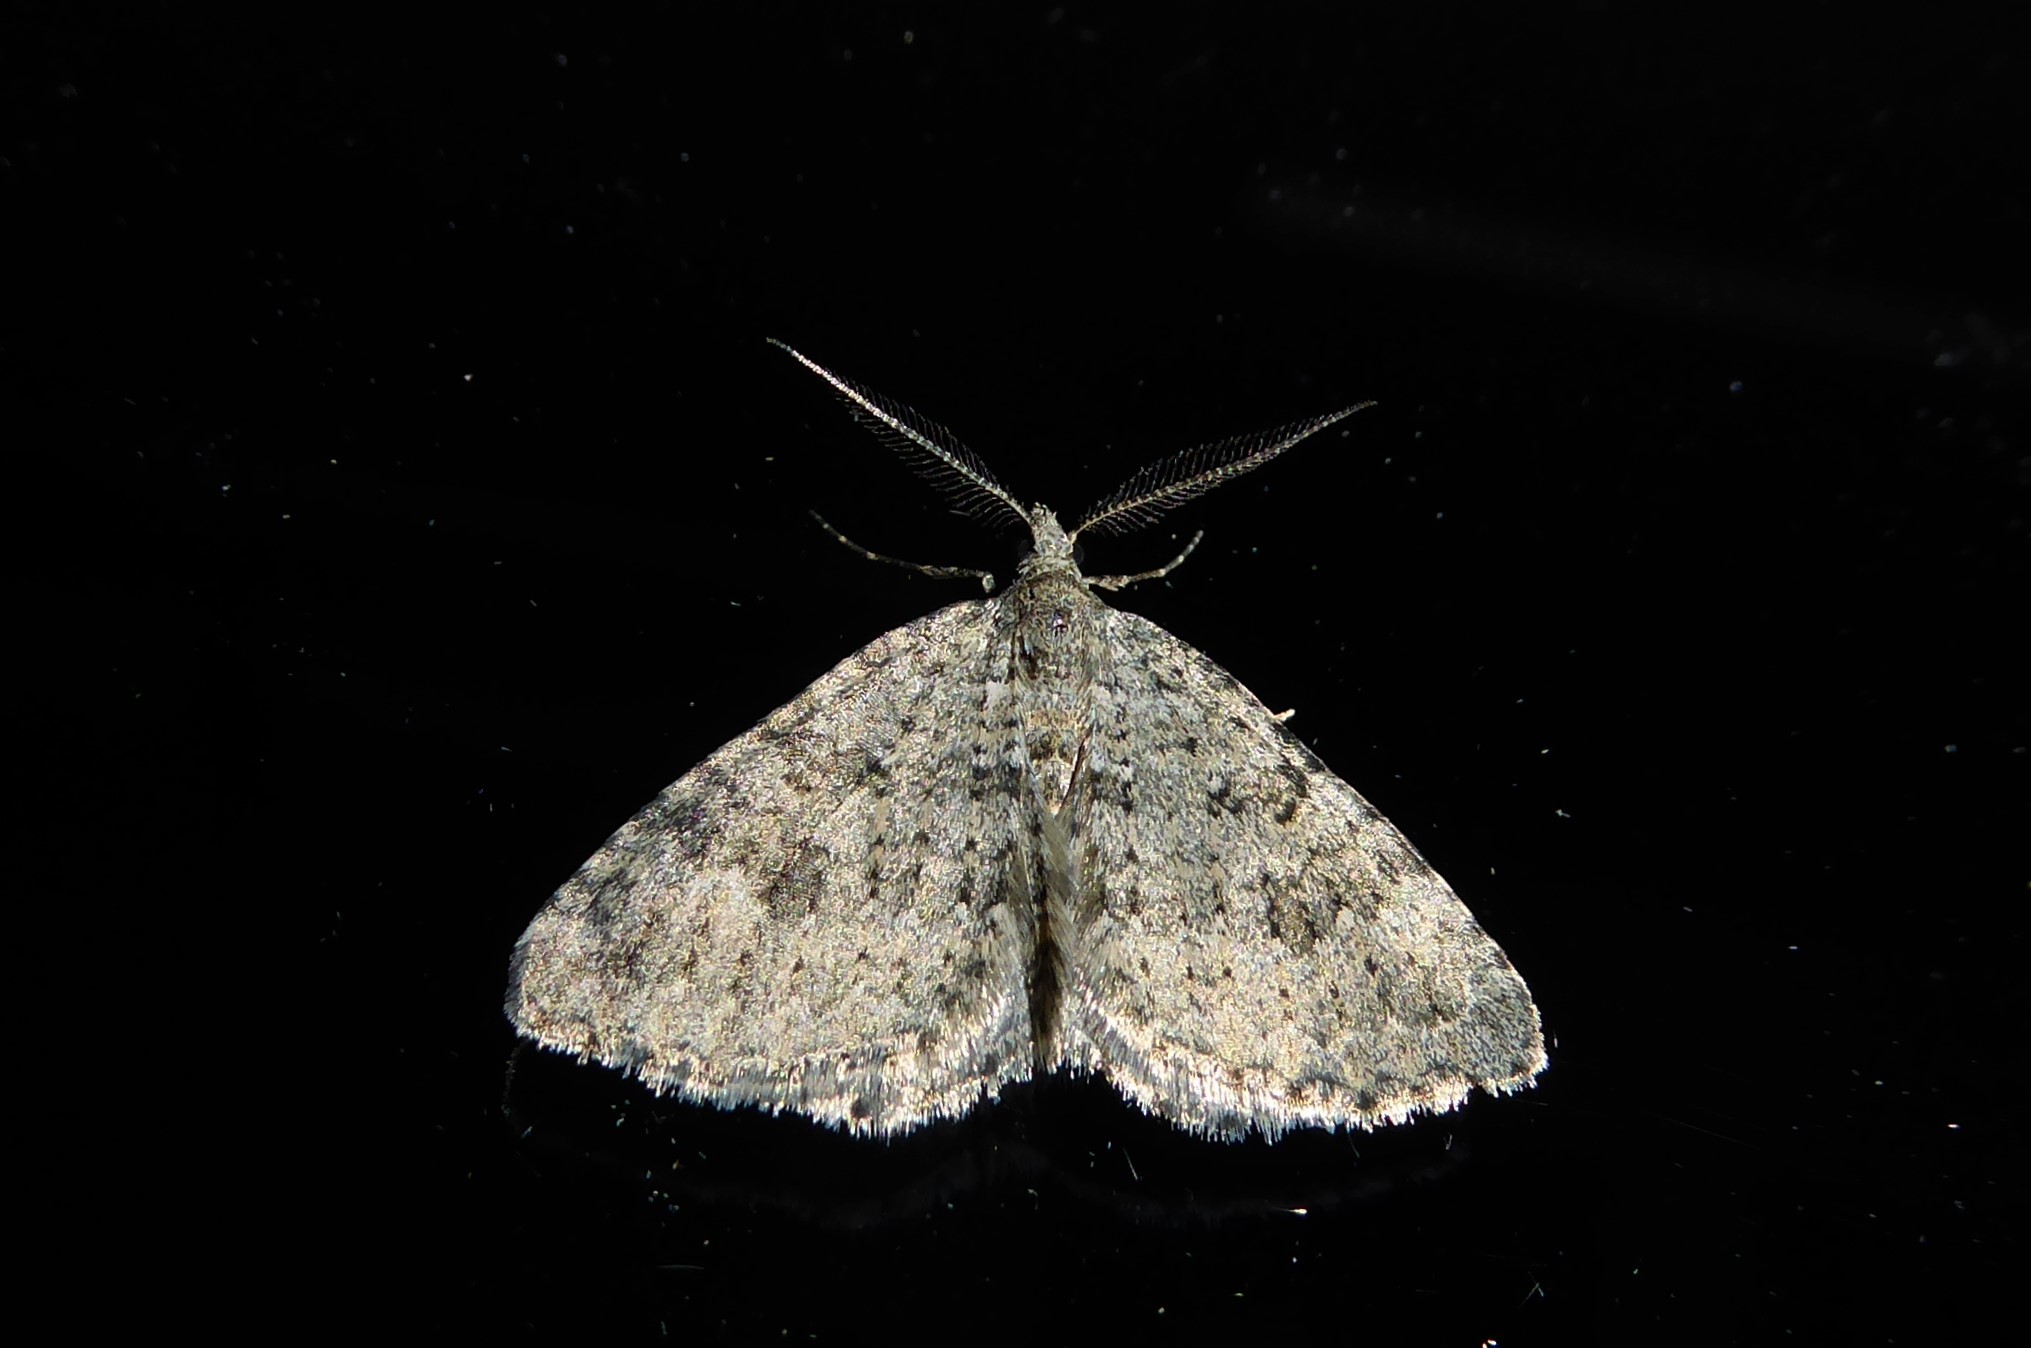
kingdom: Animalia
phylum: Arthropoda
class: Insecta
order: Lepidoptera
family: Geometridae
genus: Helastia
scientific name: Helastia corcularia
